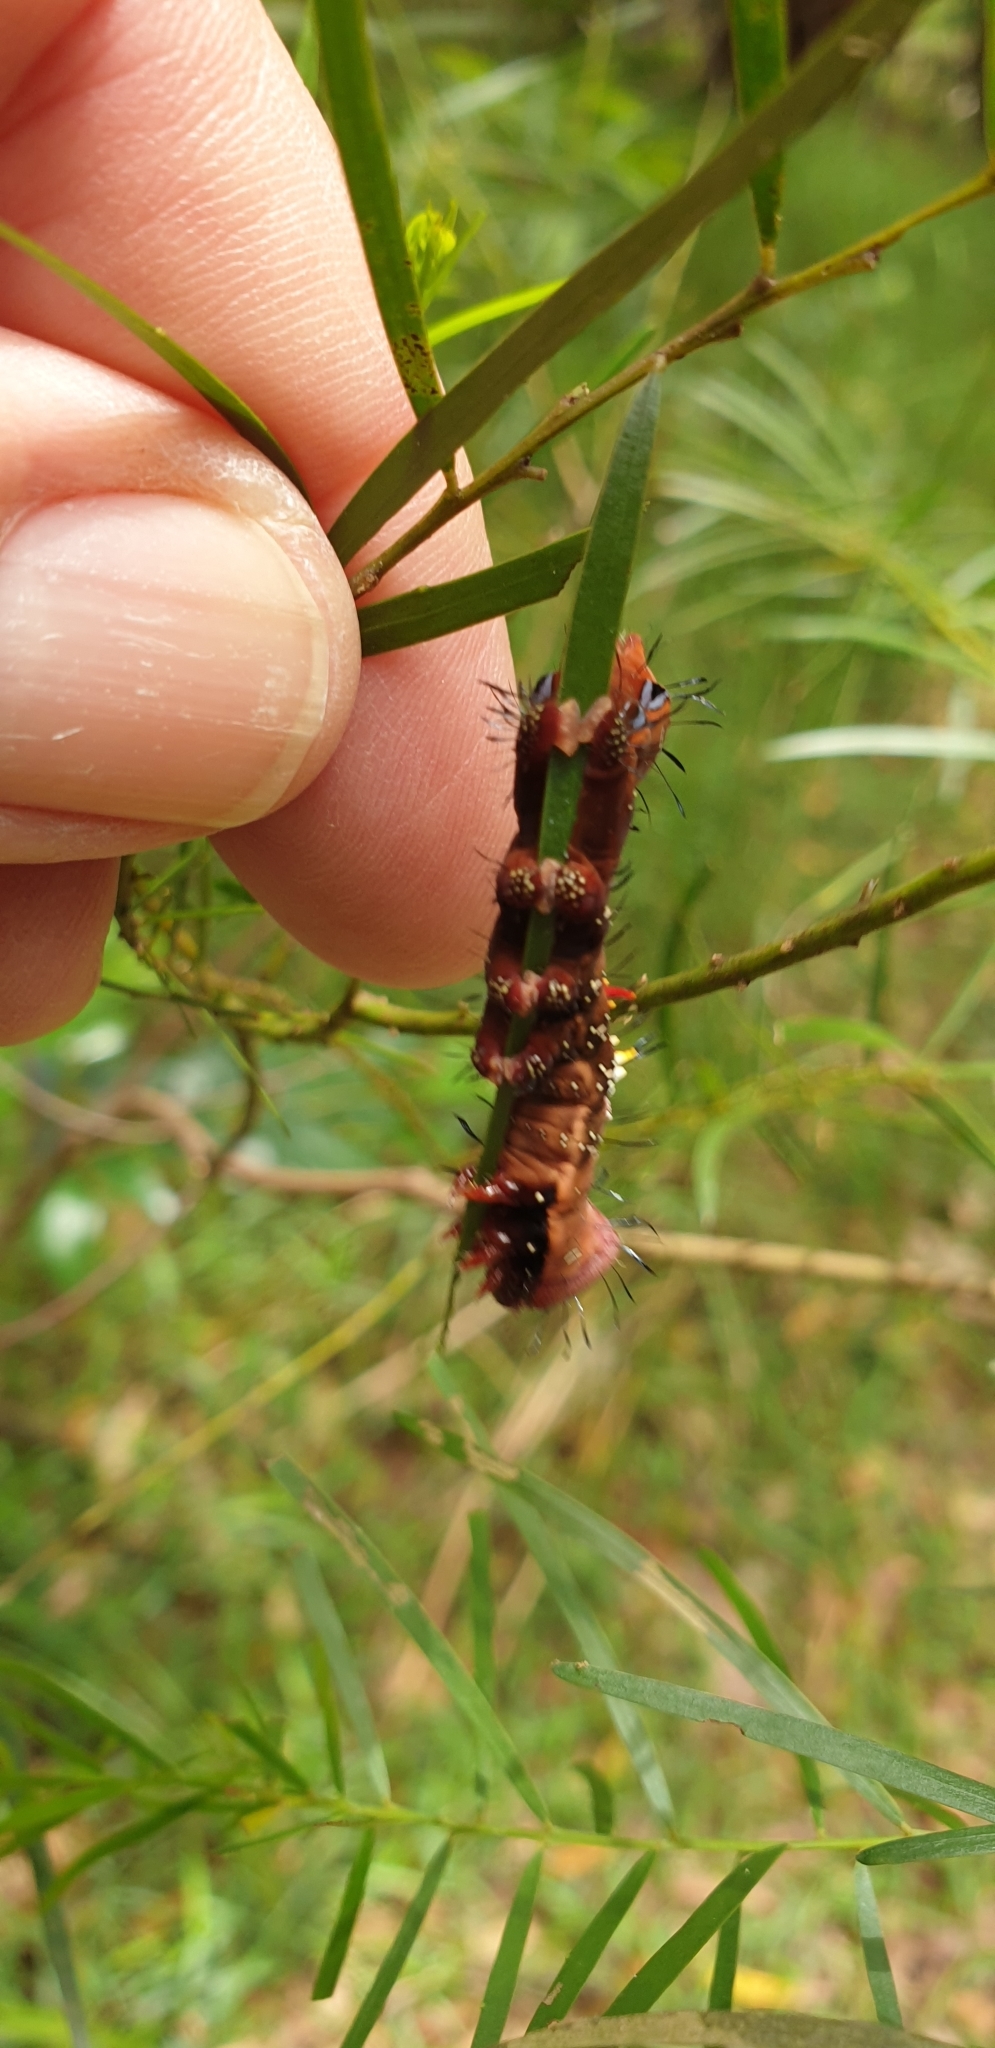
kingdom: Animalia
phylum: Arthropoda
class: Insecta
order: Lepidoptera
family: Notodontidae
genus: Neola
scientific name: Neola semiaurata
